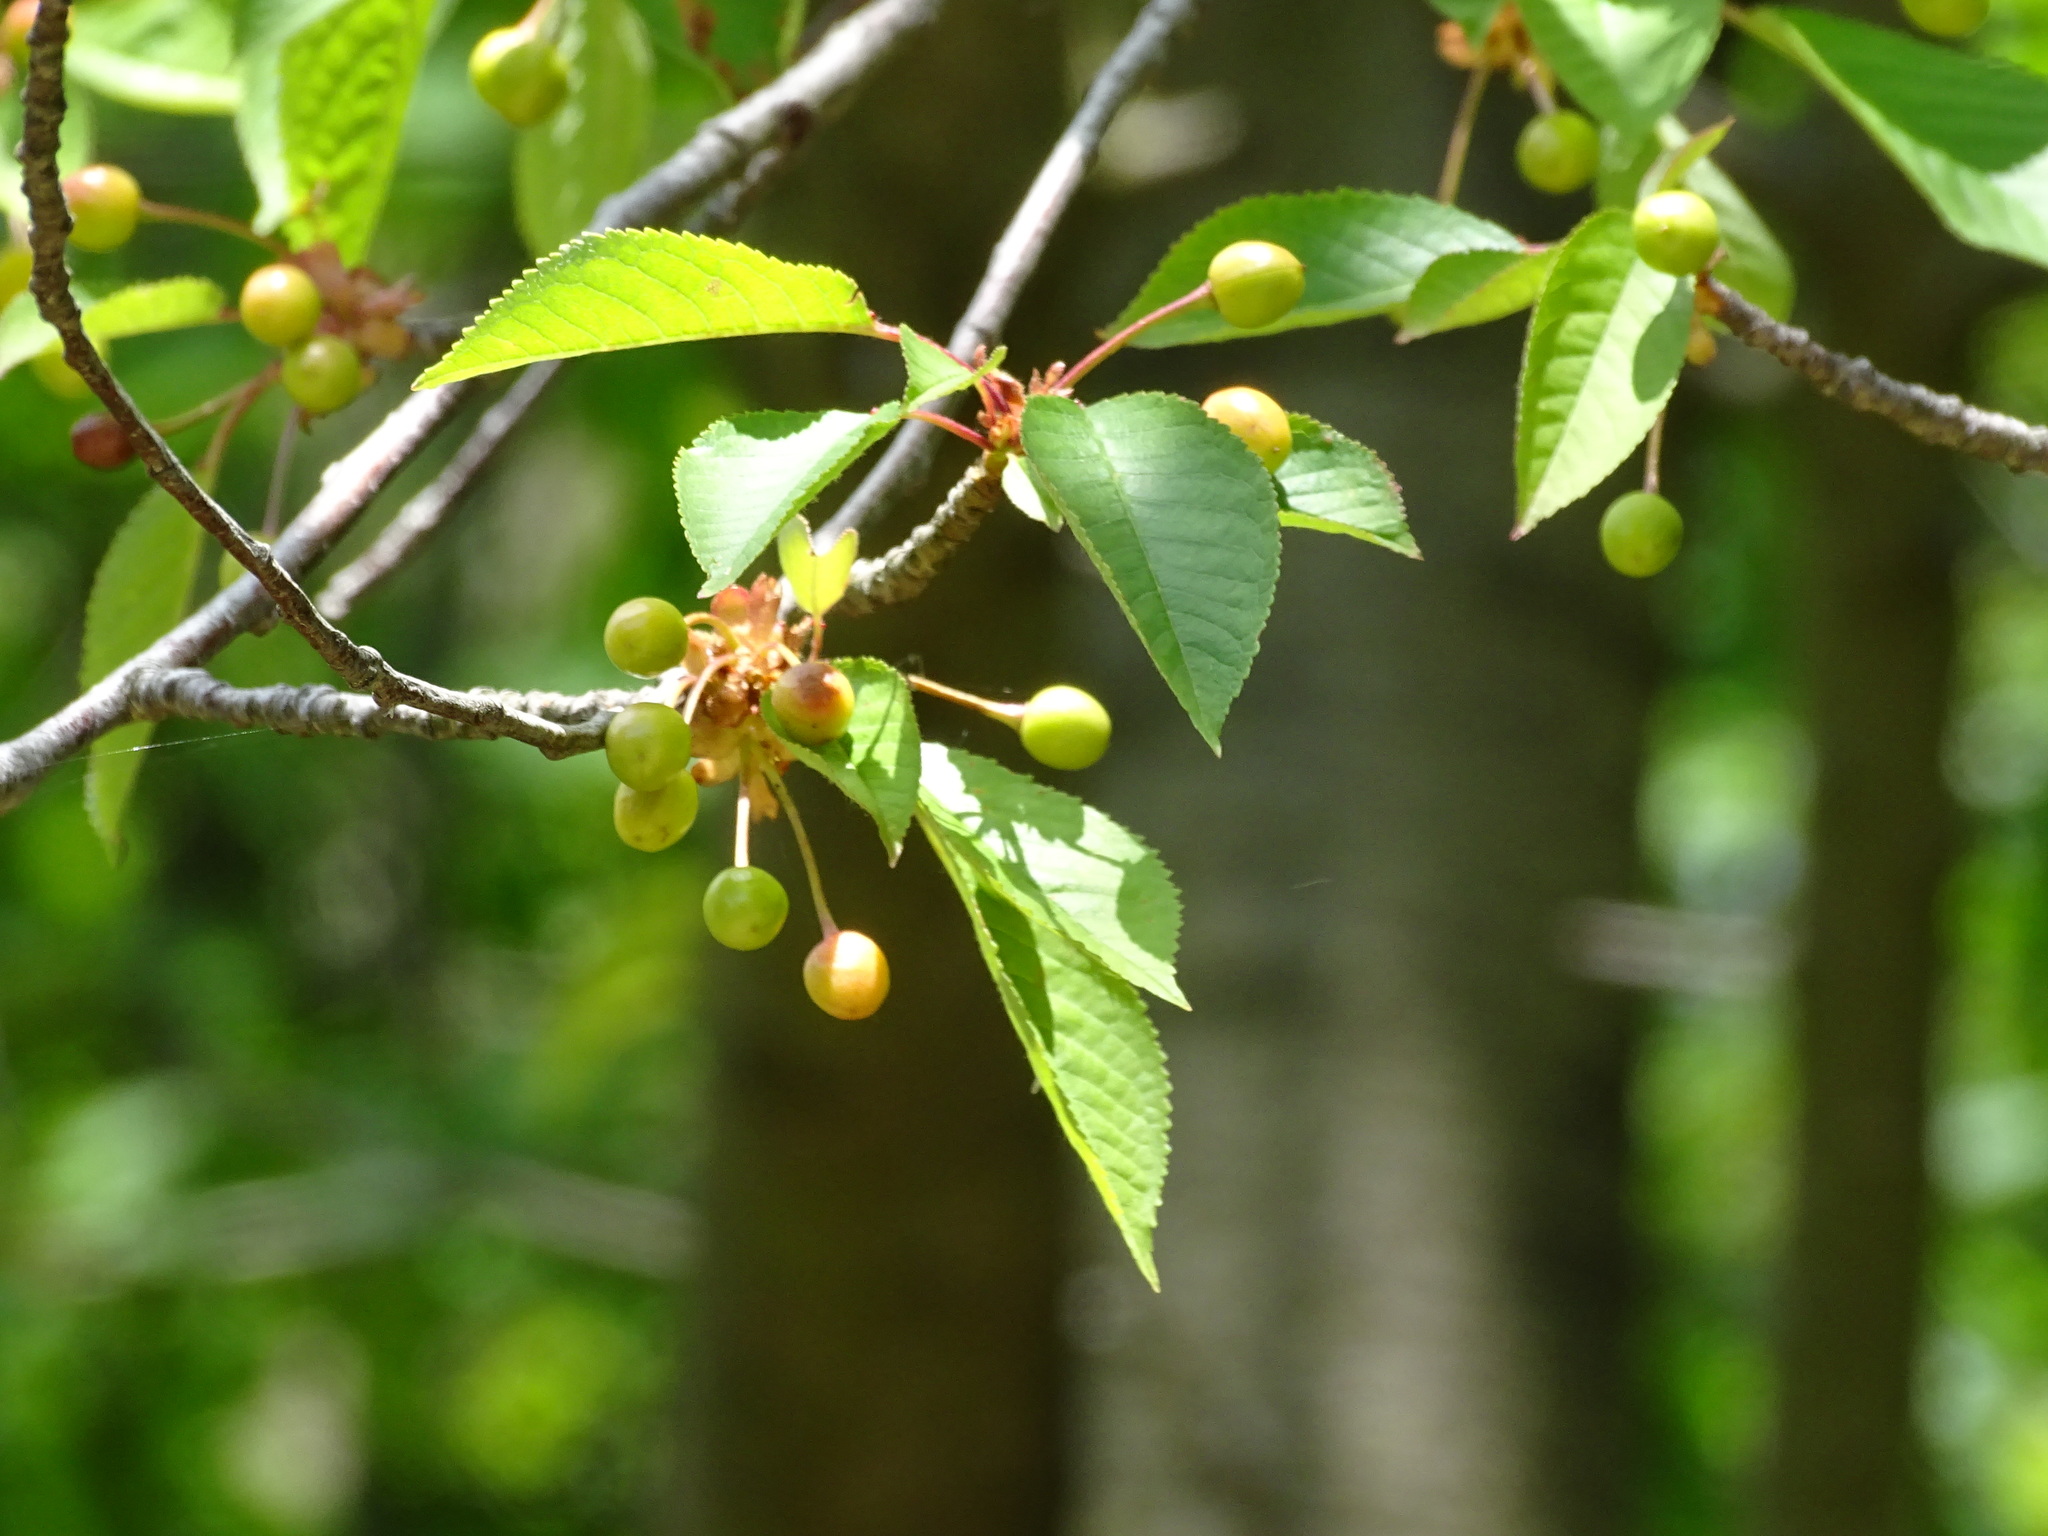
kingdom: Plantae
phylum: Tracheophyta
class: Magnoliopsida
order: Rosales
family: Rosaceae
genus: Prunus
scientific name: Prunus avium
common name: Sweet cherry
